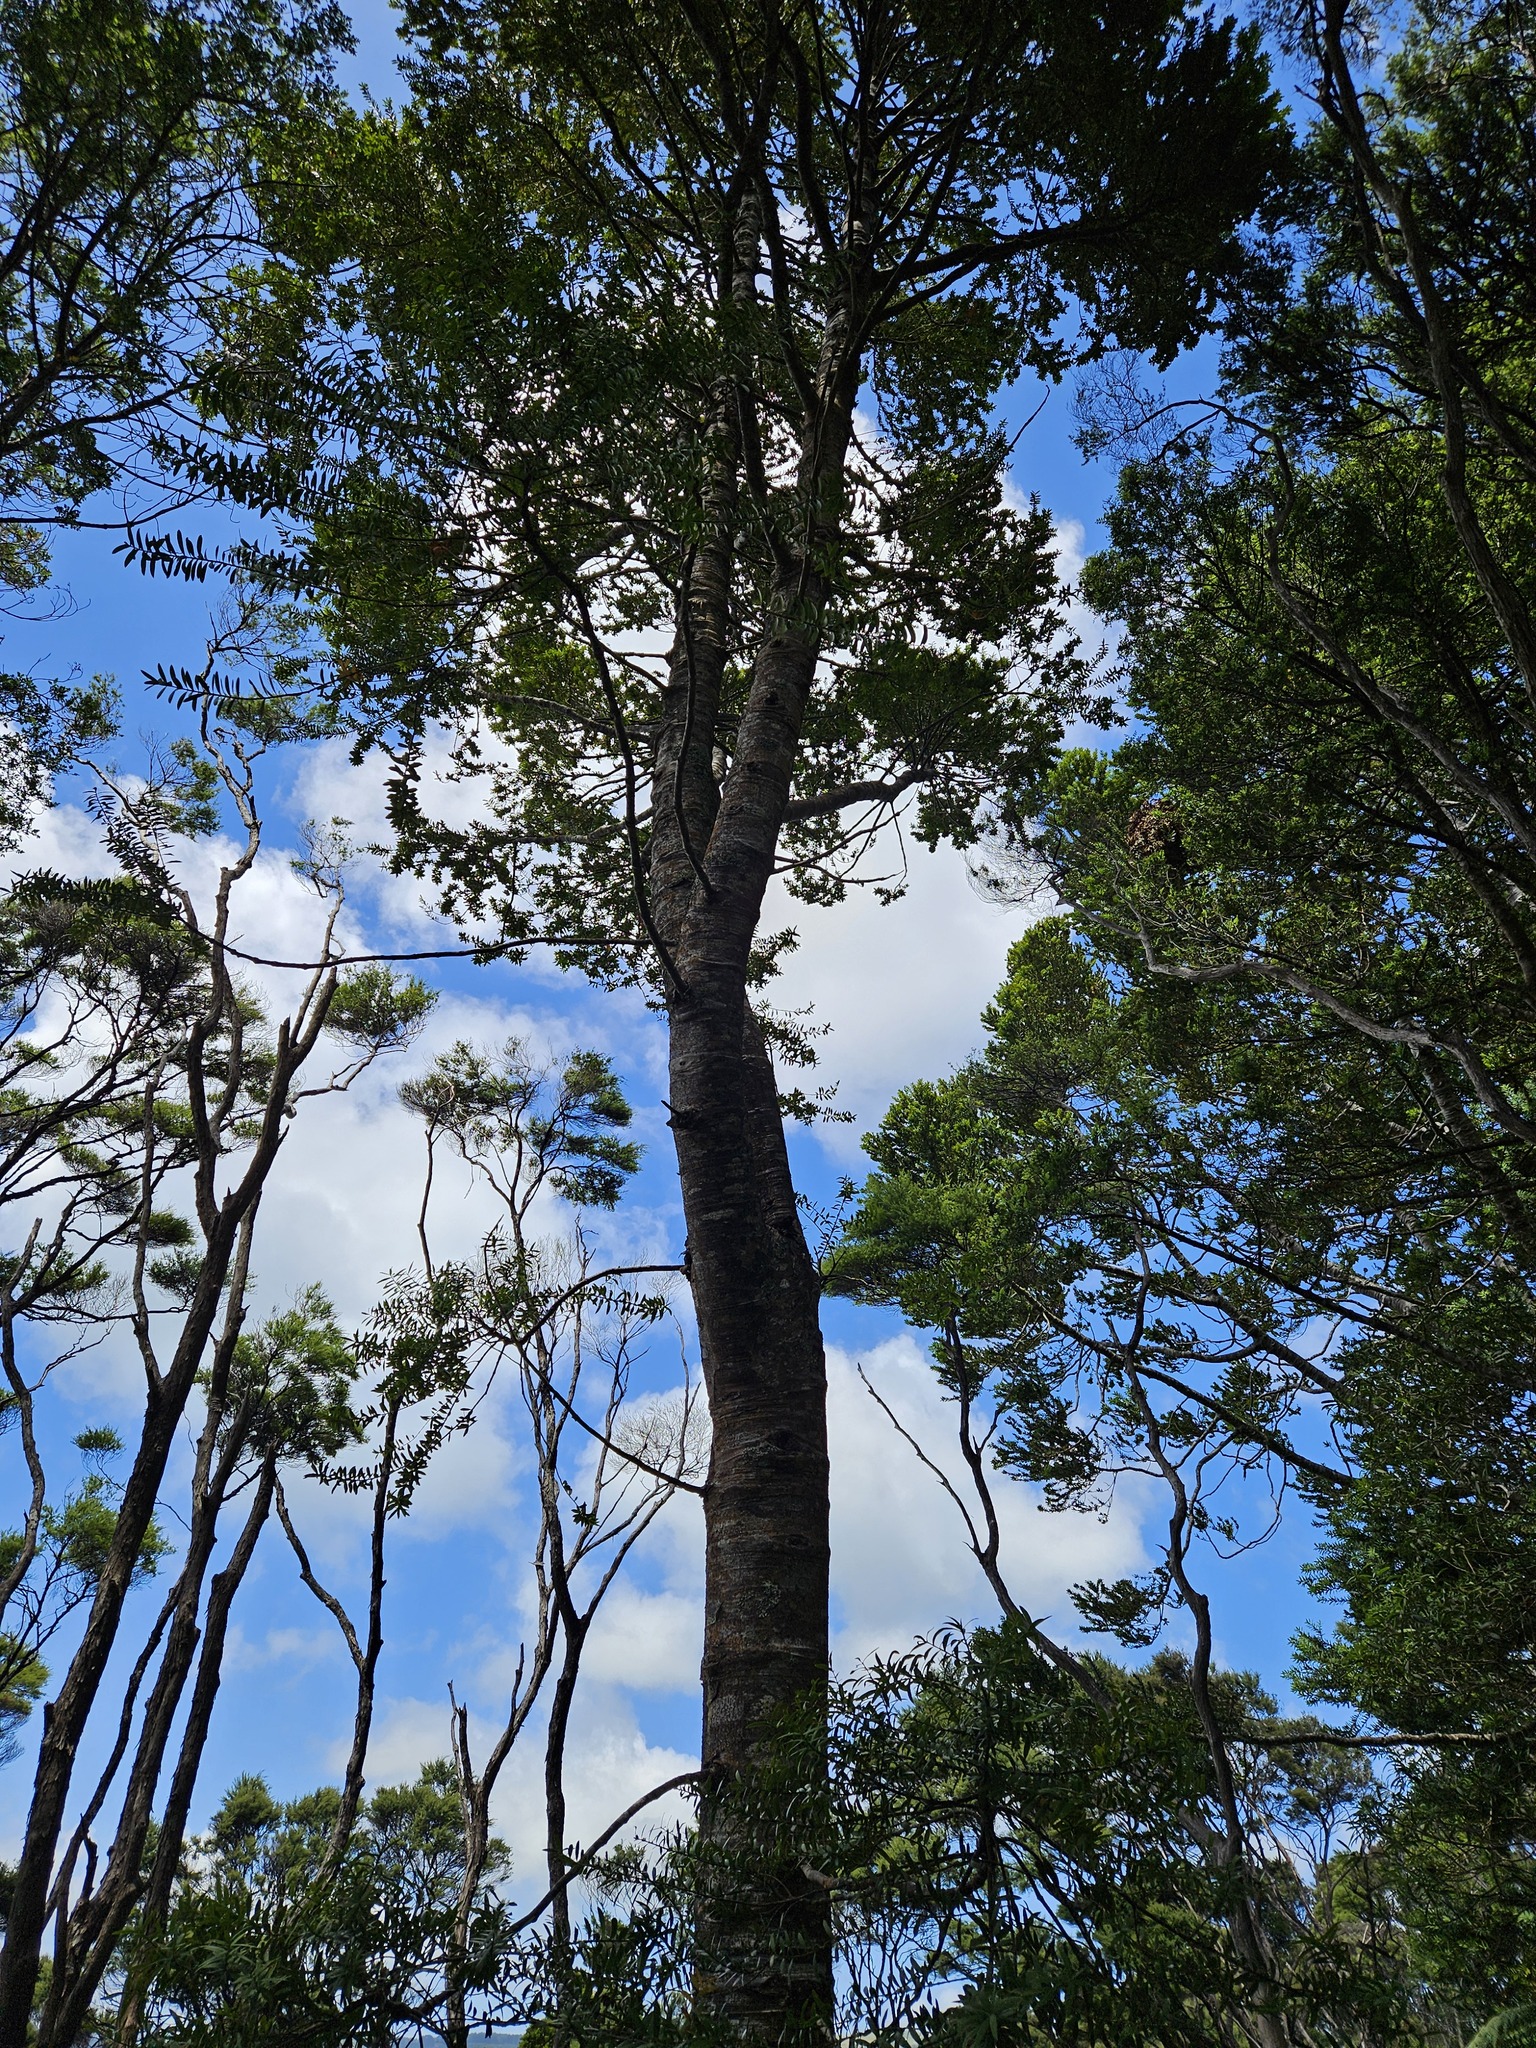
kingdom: Plantae
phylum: Tracheophyta
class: Pinopsida
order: Pinales
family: Araucariaceae
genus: Agathis
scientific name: Agathis australis
